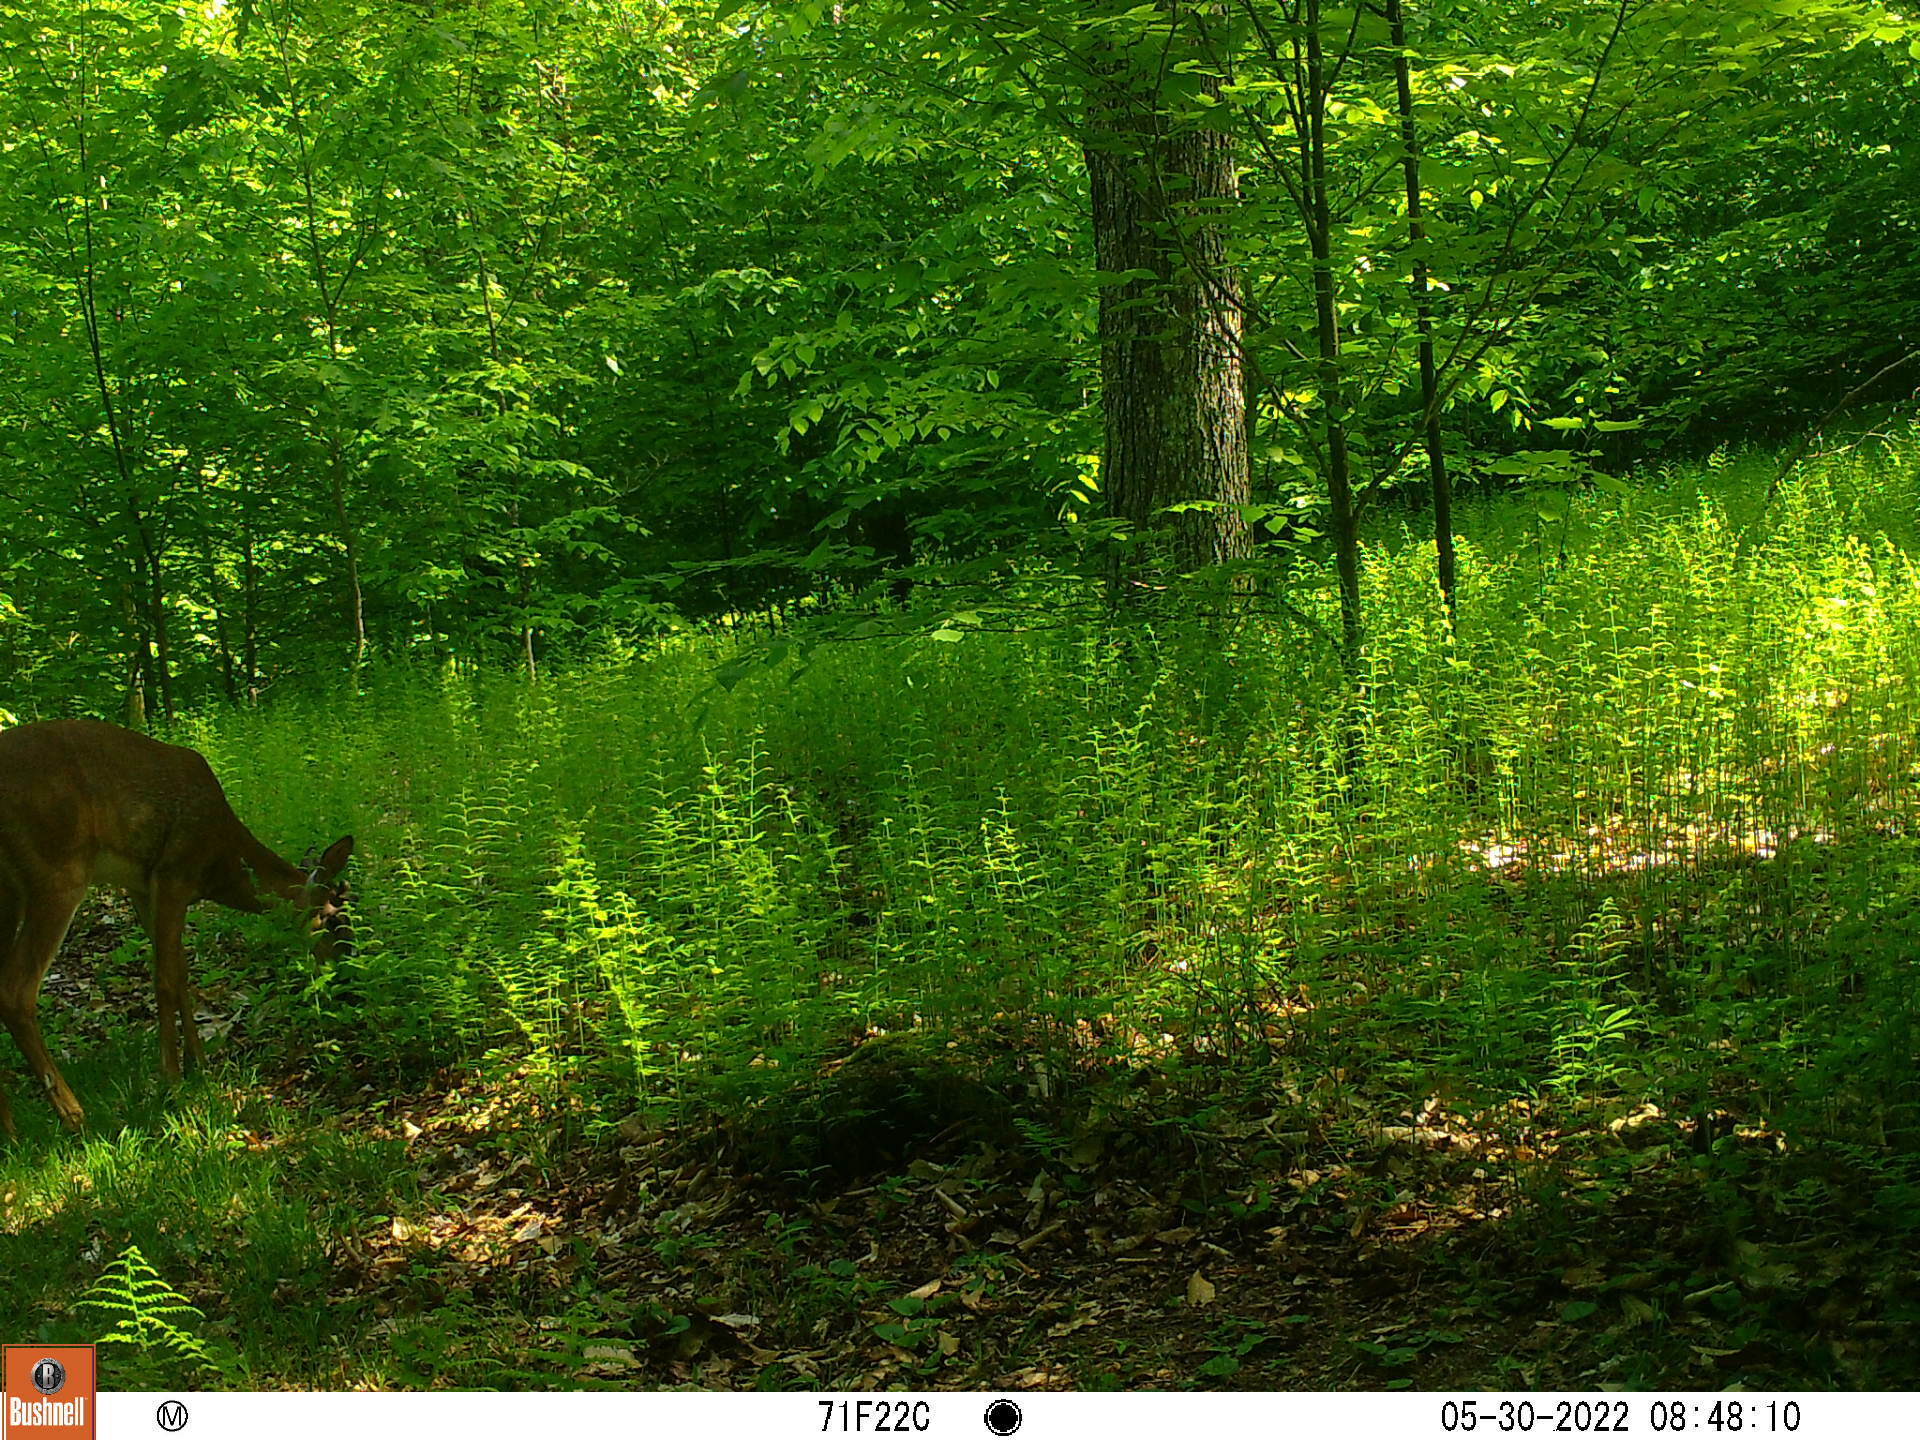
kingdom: Animalia
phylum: Chordata
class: Mammalia
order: Artiodactyla
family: Cervidae
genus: Odocoileus
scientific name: Odocoileus virginianus
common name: White-tailed deer
